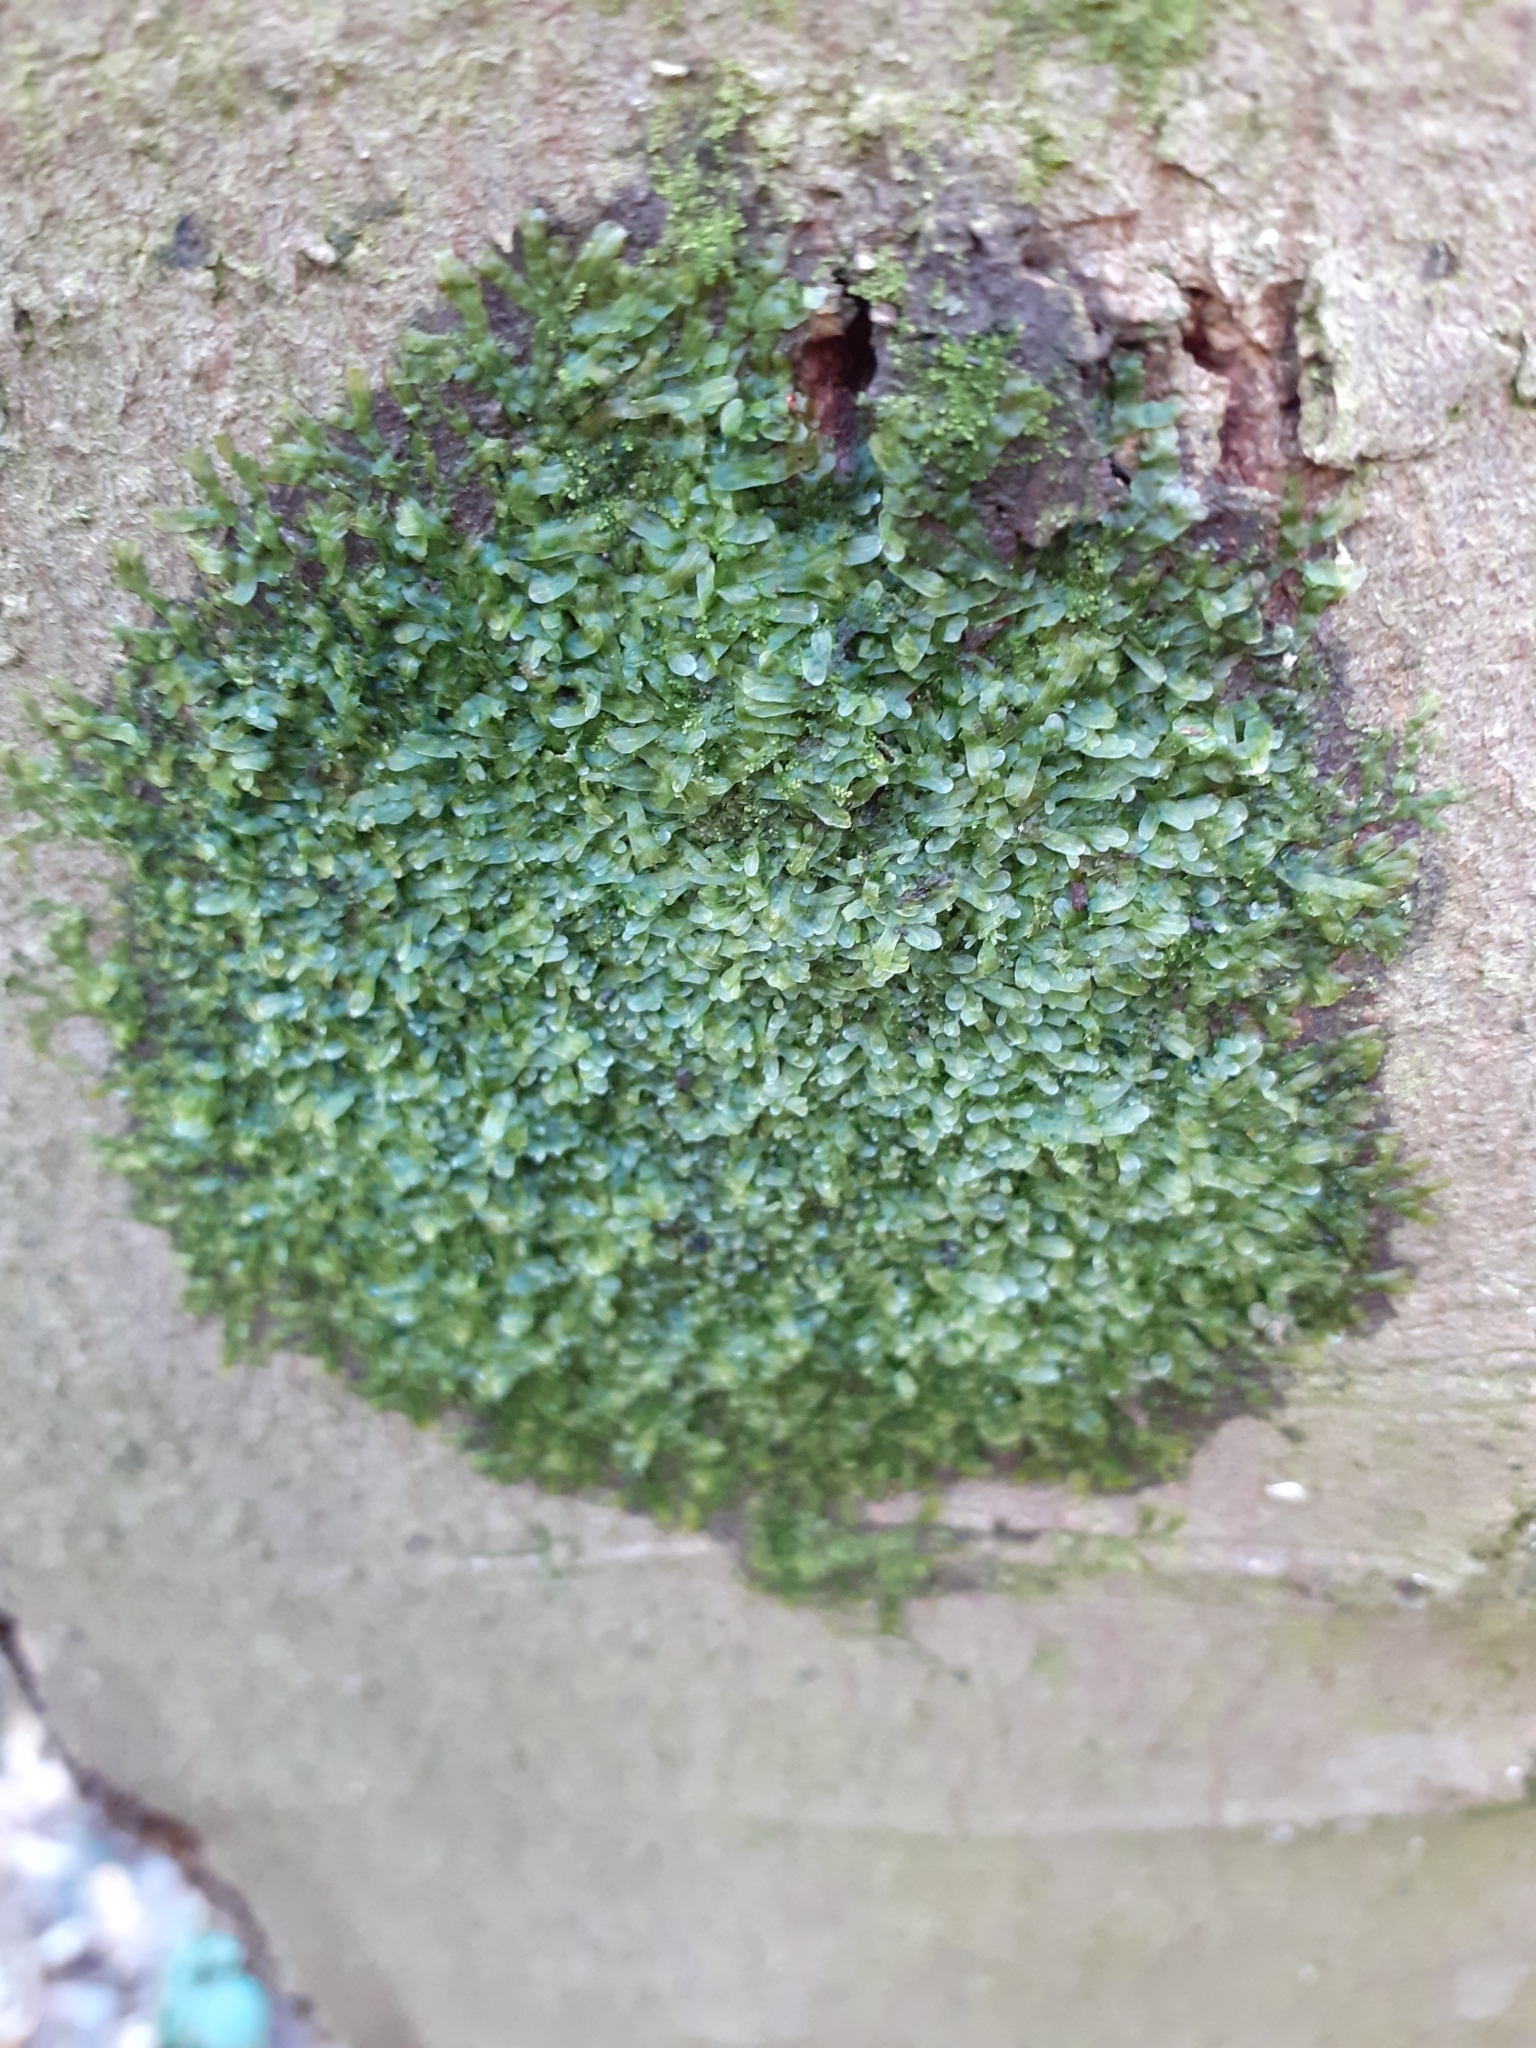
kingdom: Plantae
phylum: Marchantiophyta
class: Jungermanniopsida
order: Metzgeriales
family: Metzgeriaceae
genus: Metzgeria
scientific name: Metzgeria furcata
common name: Forked veilwort
